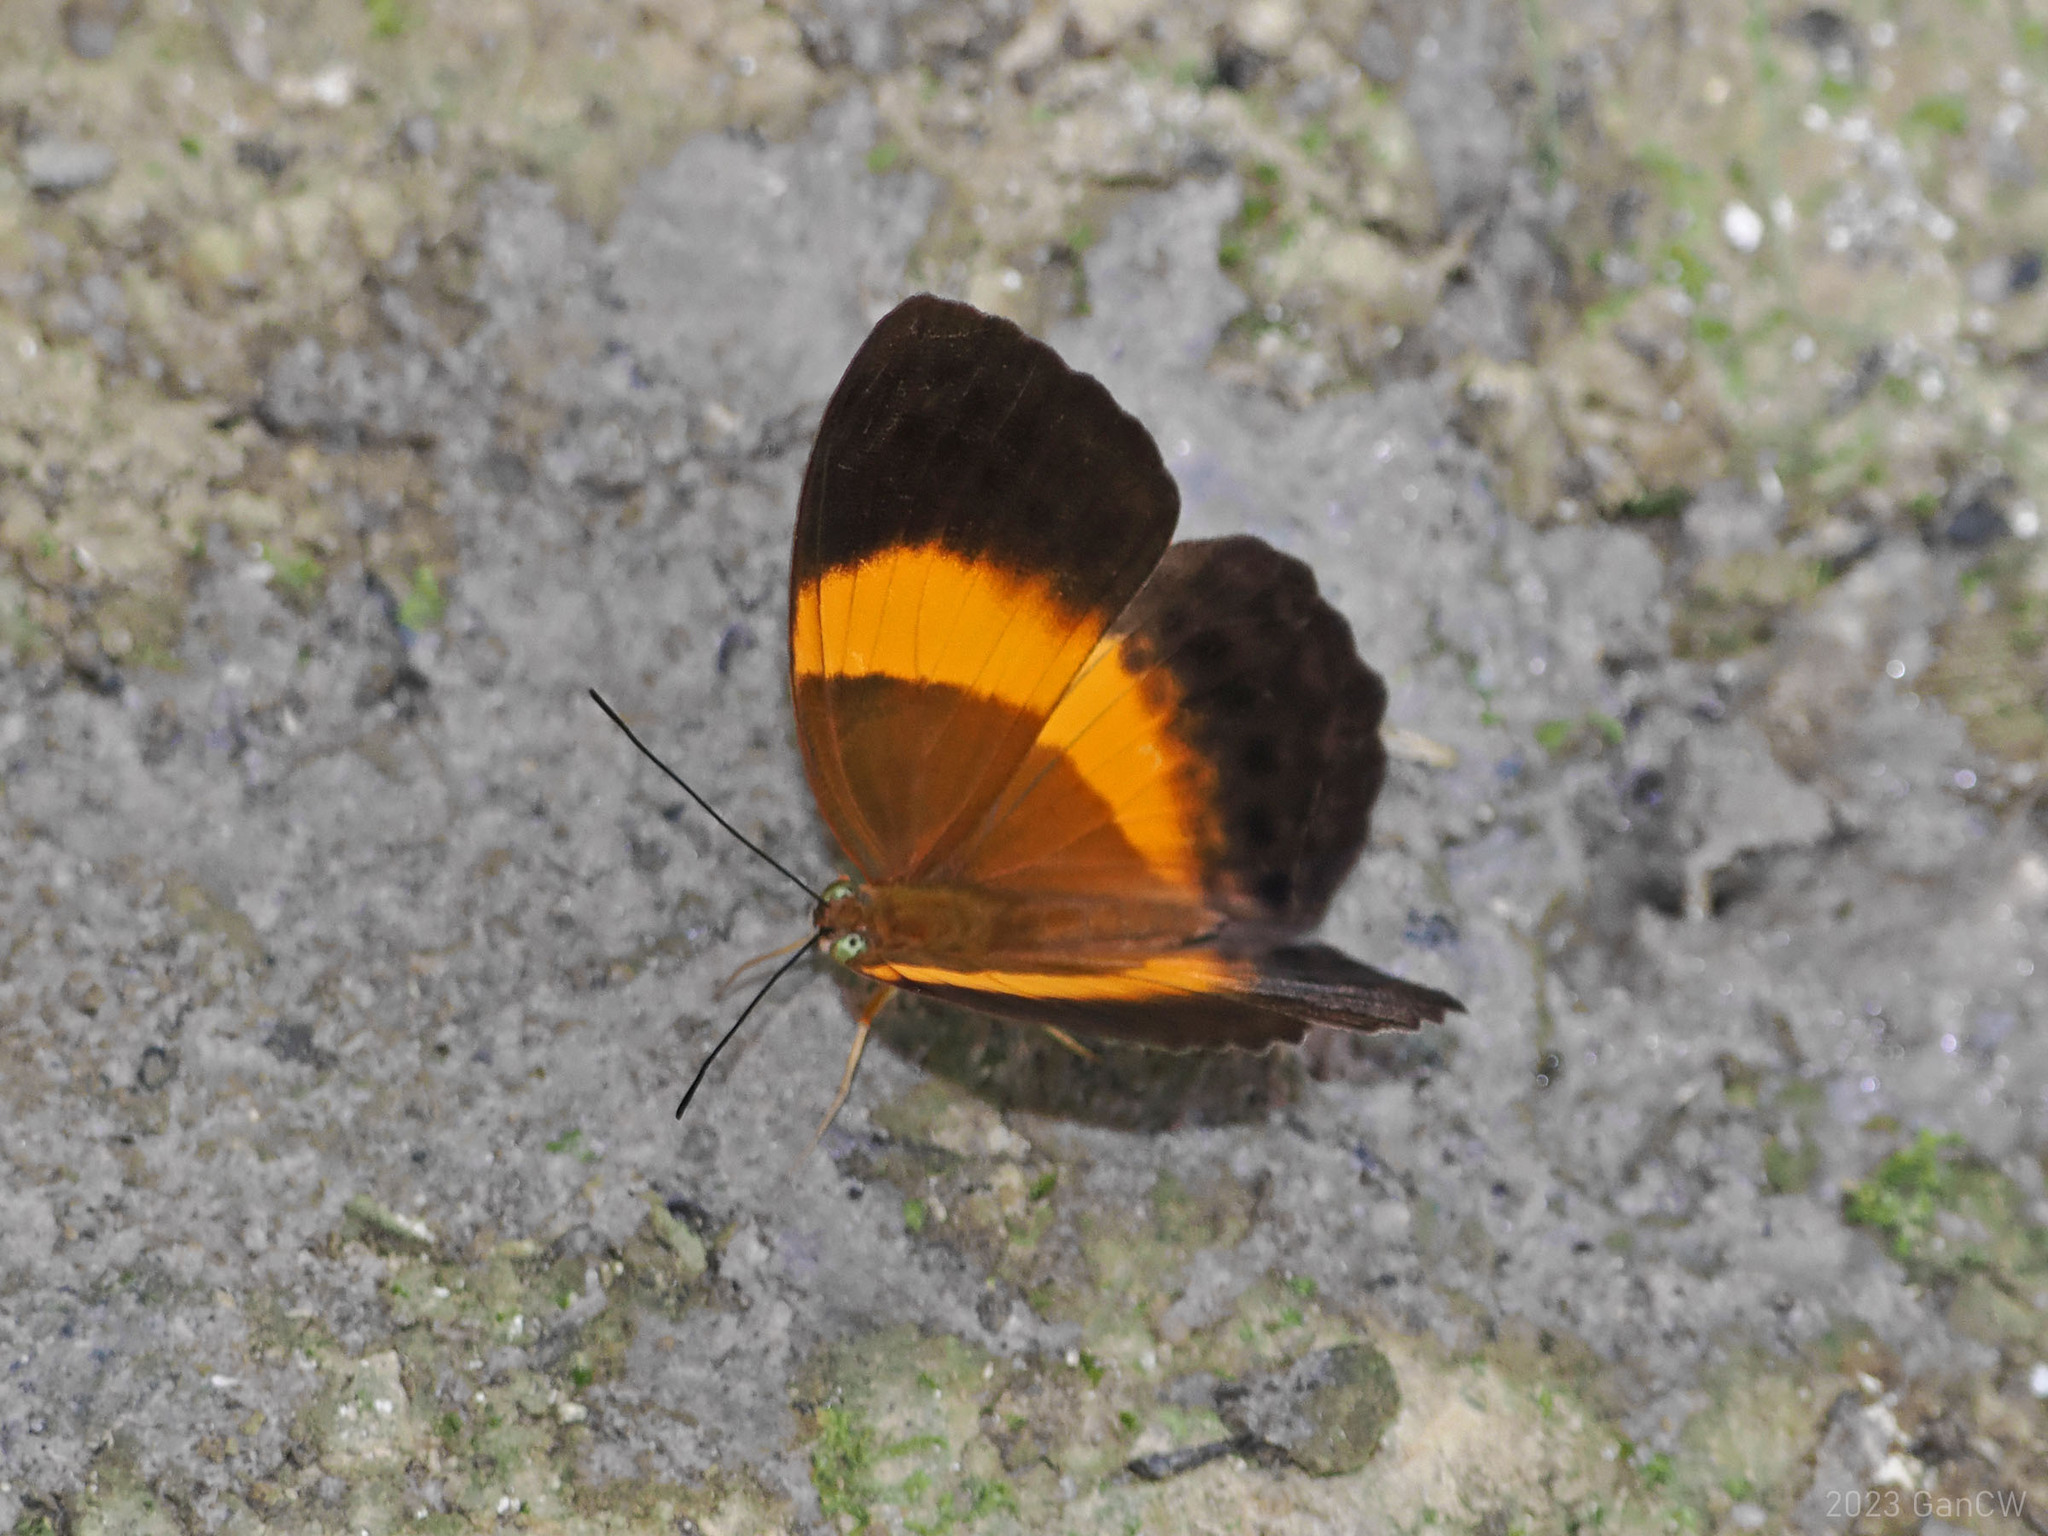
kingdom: Animalia
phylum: Arthropoda
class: Insecta
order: Lepidoptera
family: Nymphalidae
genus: Cupha
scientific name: Cupha prosope
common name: Bordered rustic
